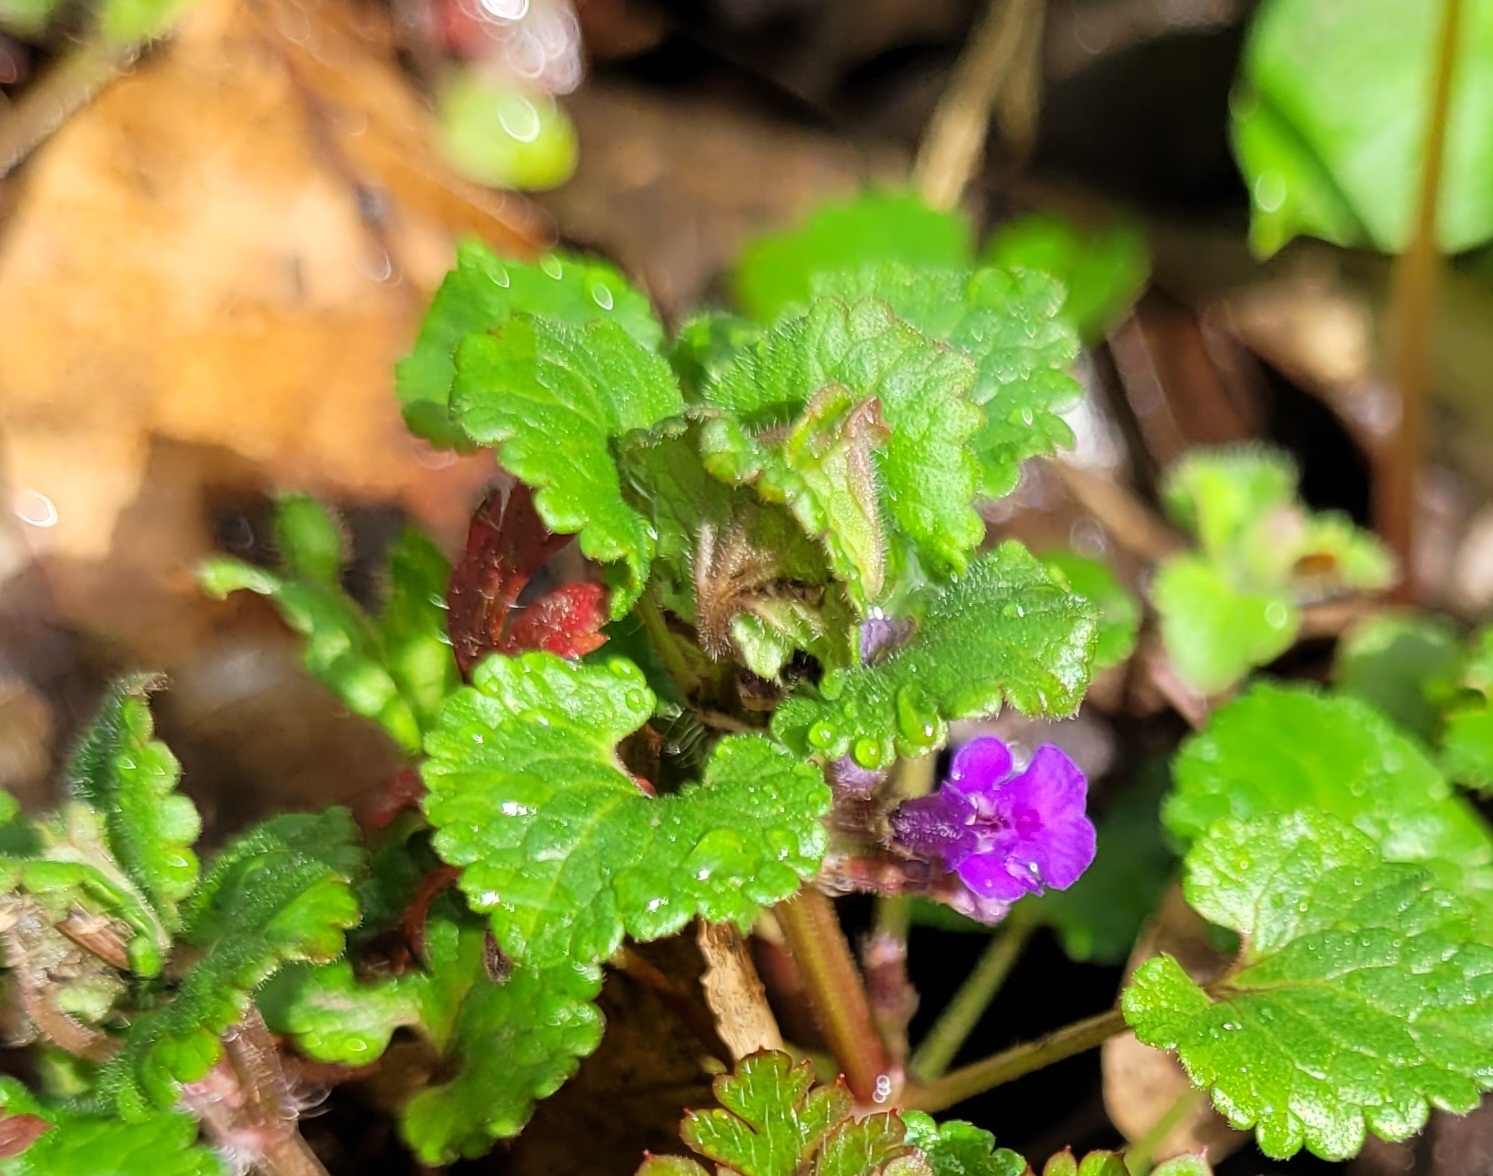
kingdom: Plantae
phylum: Tracheophyta
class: Magnoliopsida
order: Lamiales
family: Lamiaceae
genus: Glechoma
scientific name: Glechoma hederacea
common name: Ground ivy
